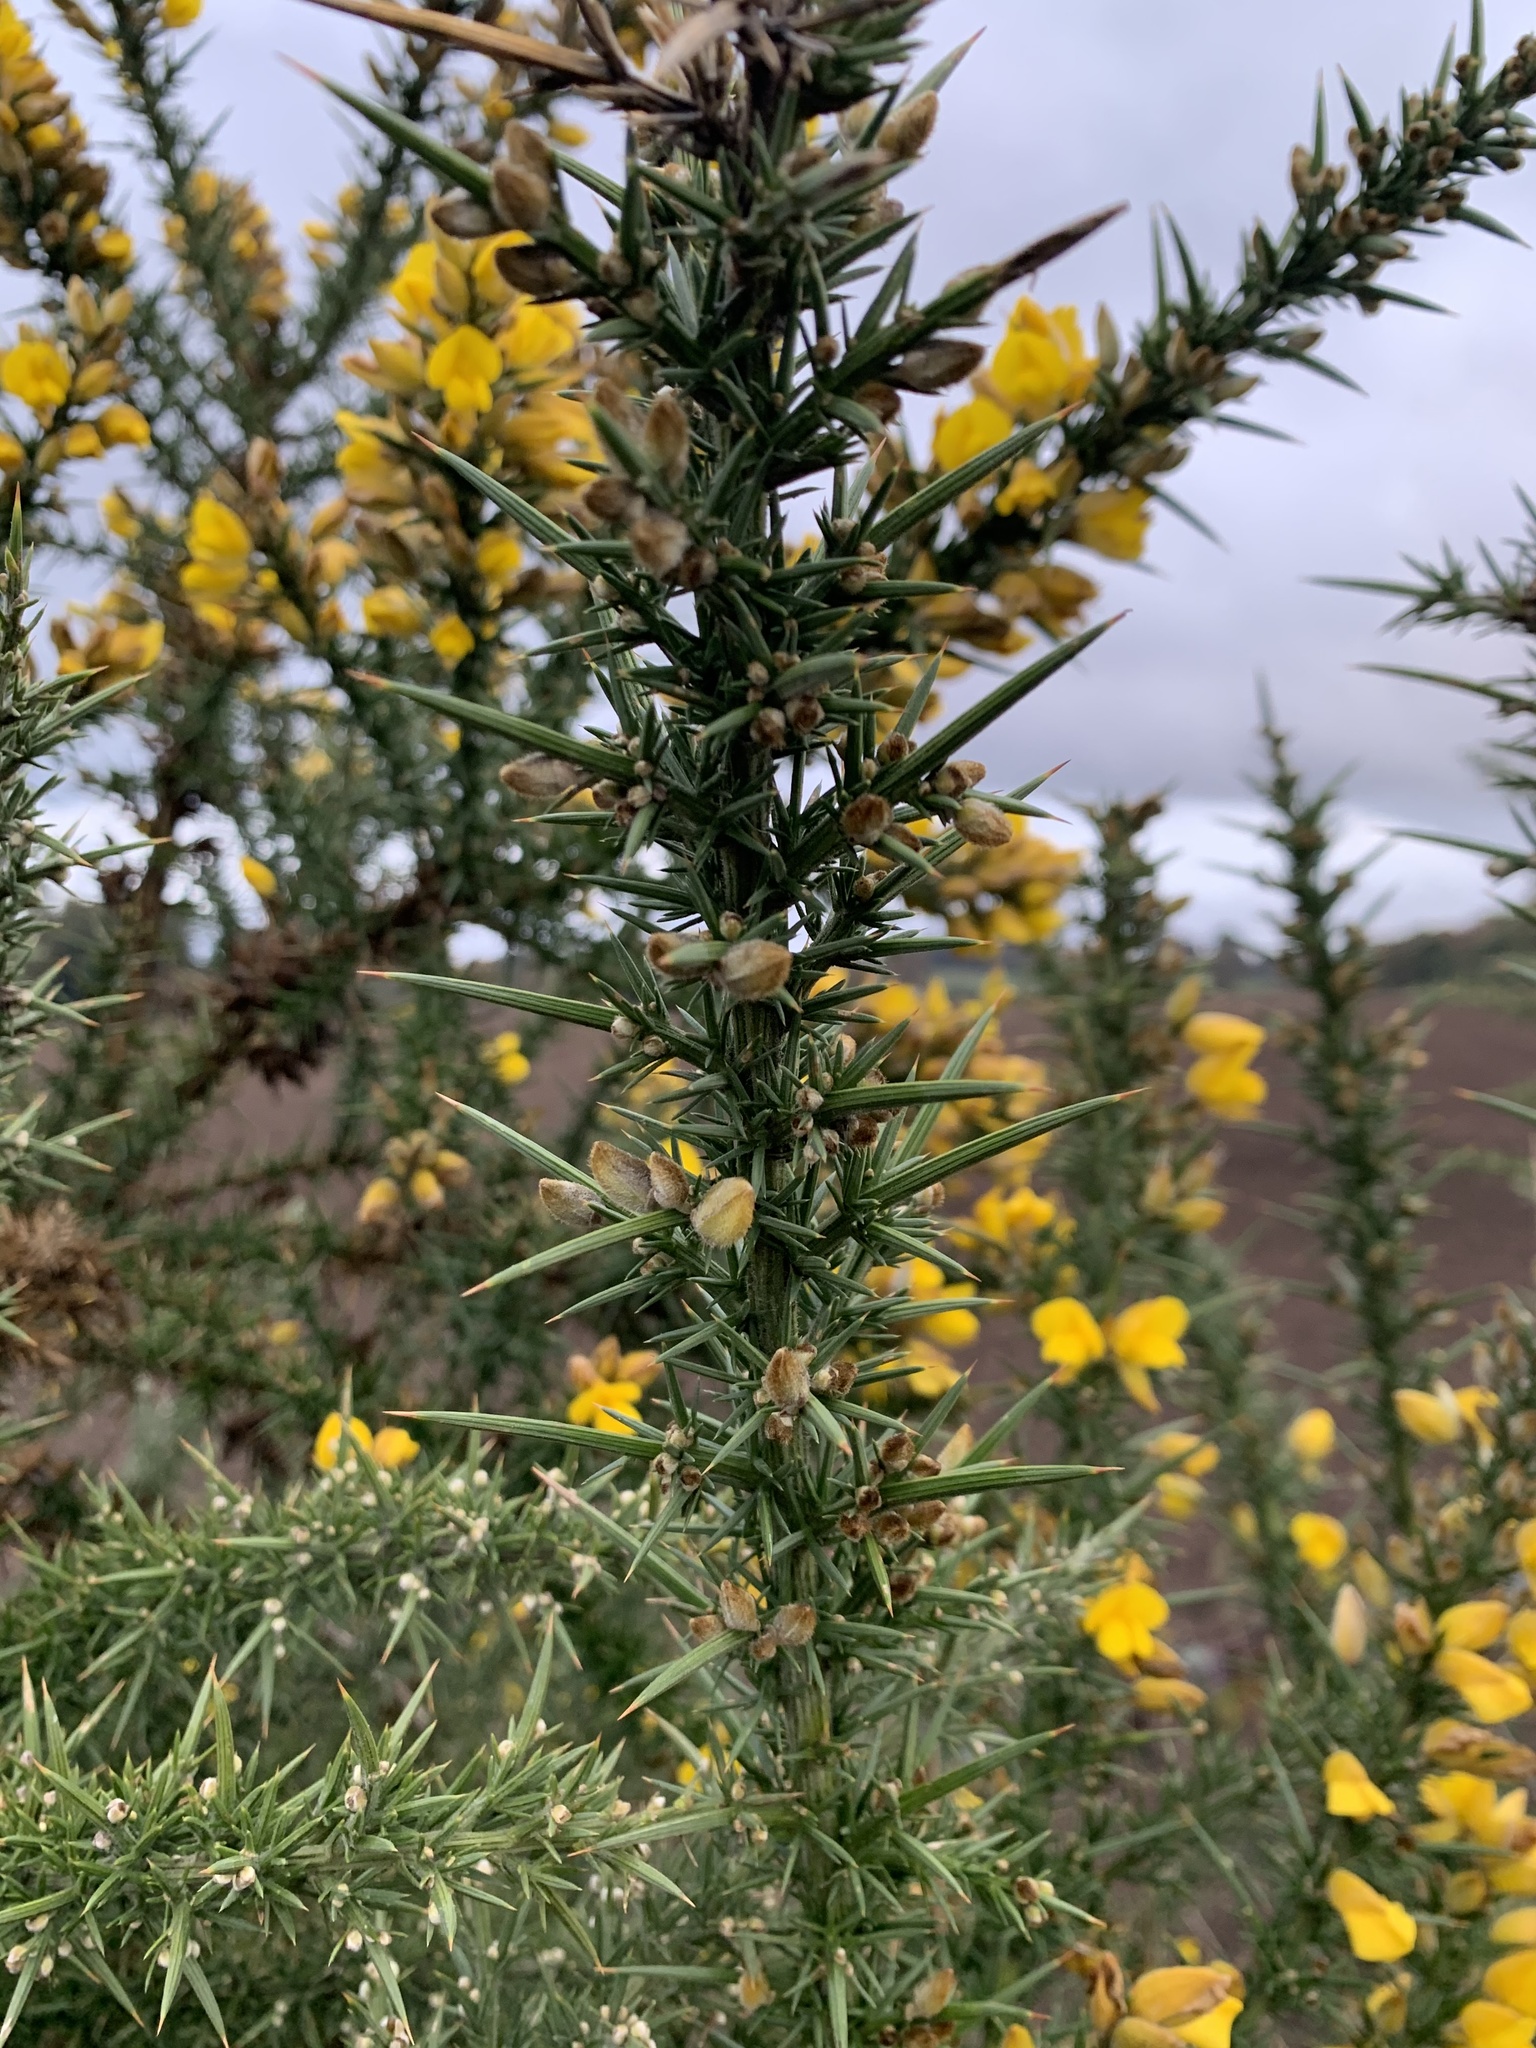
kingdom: Plantae
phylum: Tracheophyta
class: Magnoliopsida
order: Fabales
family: Fabaceae
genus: Ulex
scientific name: Ulex europaeus
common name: Common gorse
